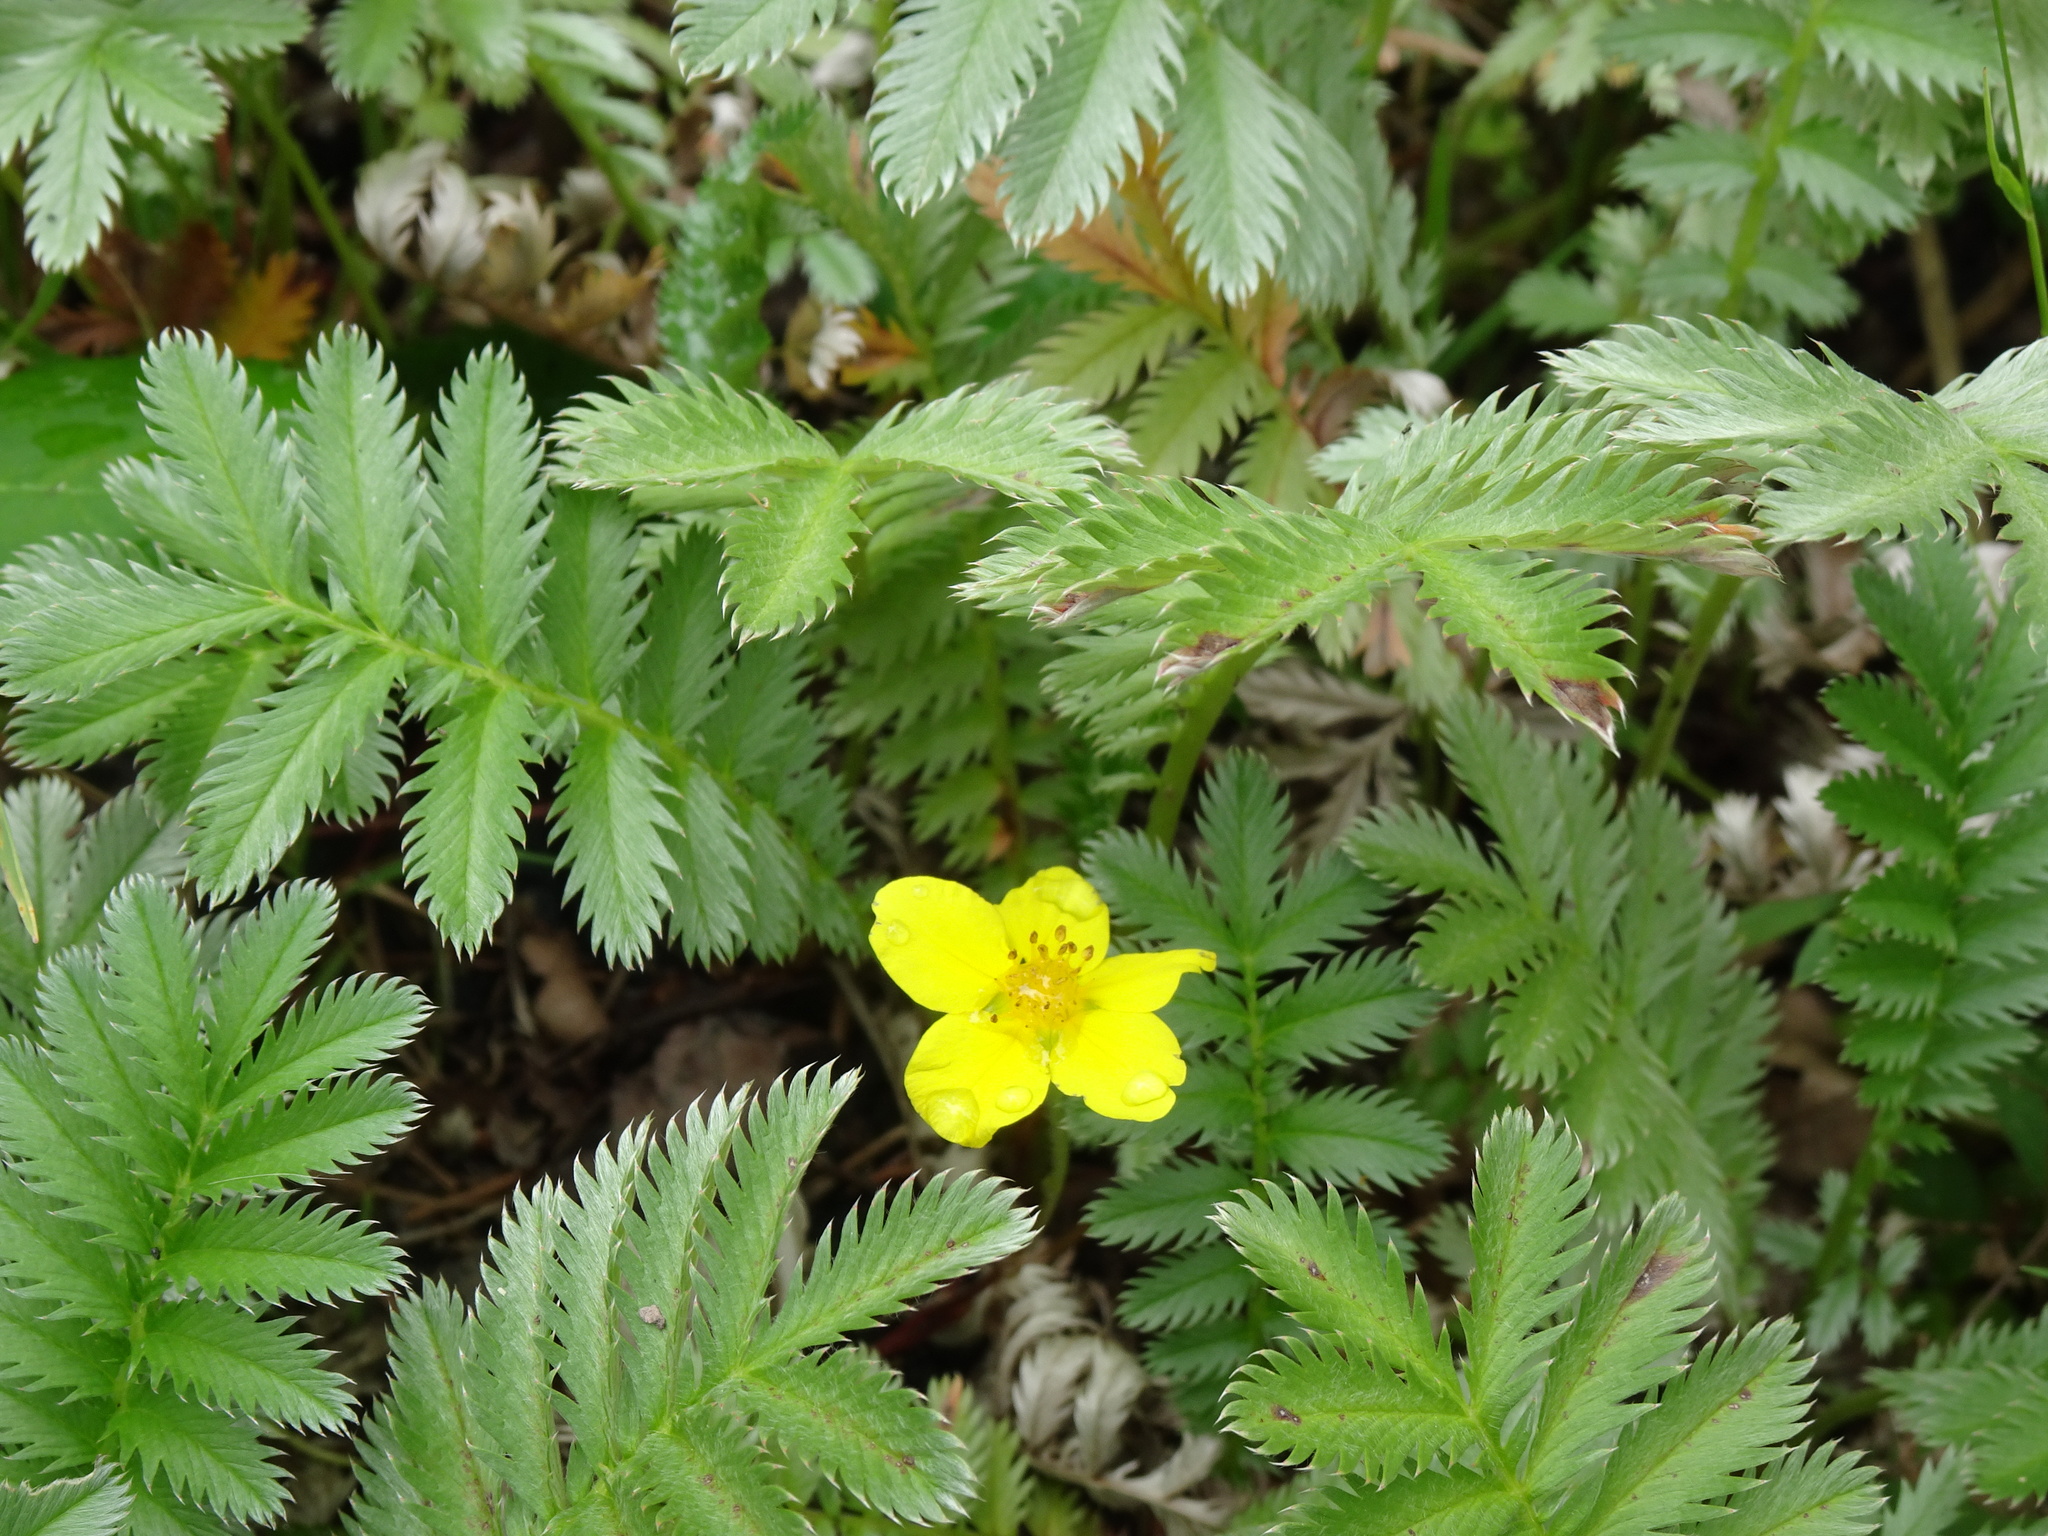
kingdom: Plantae
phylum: Tracheophyta
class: Magnoliopsida
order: Rosales
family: Rosaceae
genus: Argentina
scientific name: Argentina anserina
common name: Common silverweed
